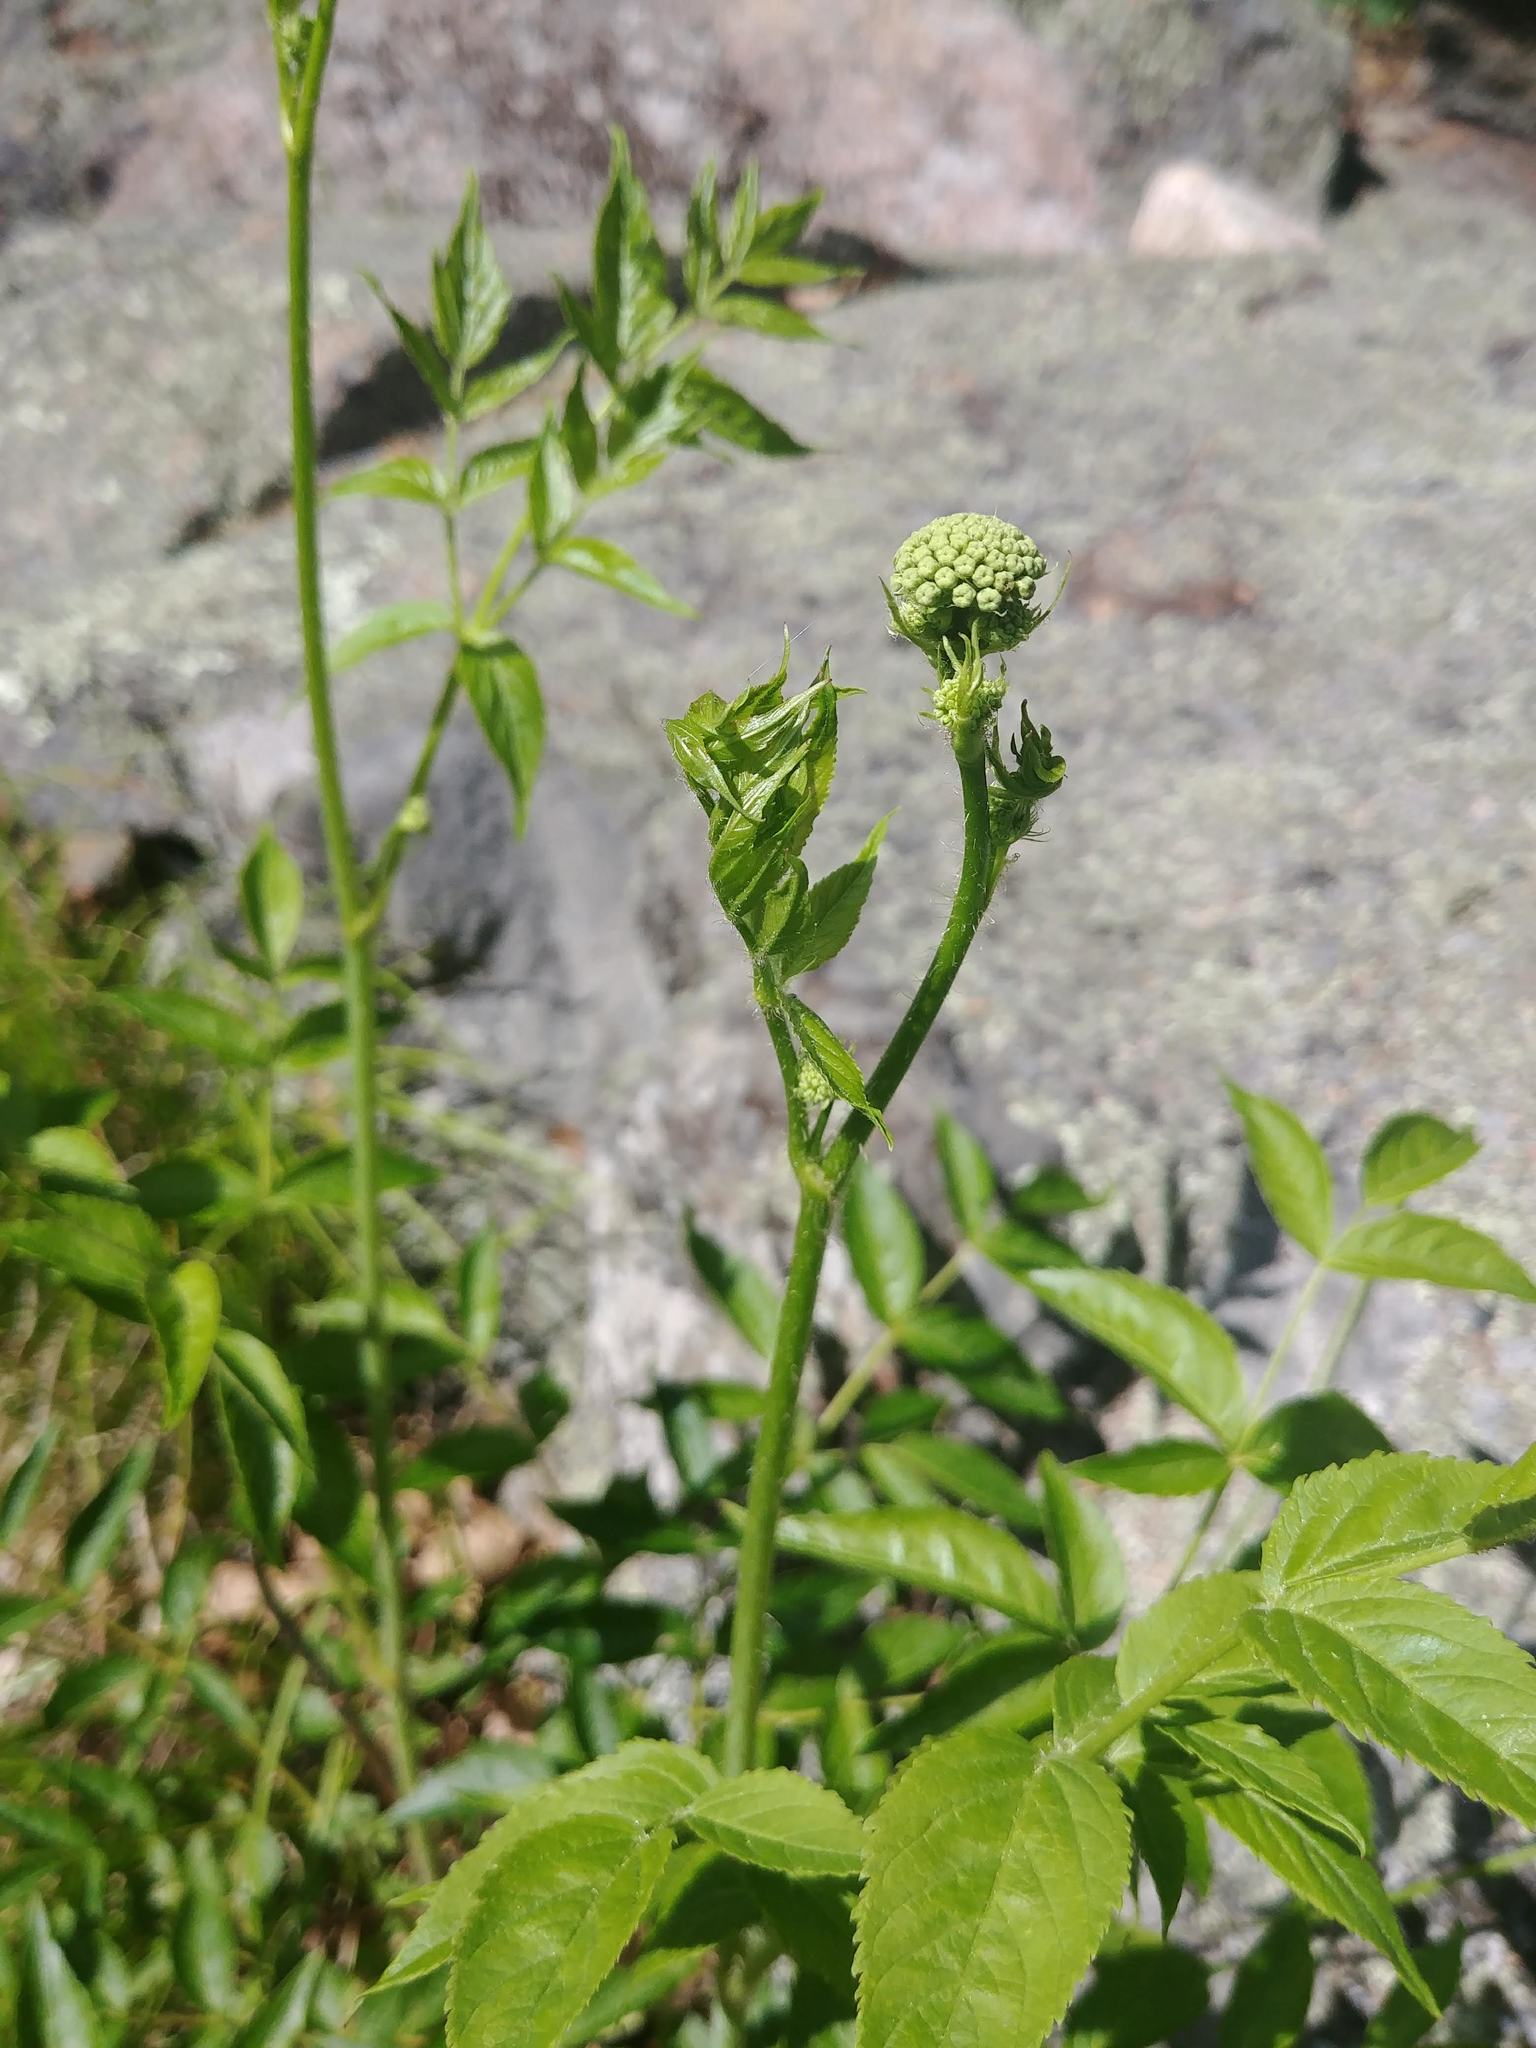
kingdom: Plantae
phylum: Tracheophyta
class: Magnoliopsida
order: Apiales
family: Araliaceae
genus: Aralia
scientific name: Aralia hispida
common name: Bristly sarsaparilla
